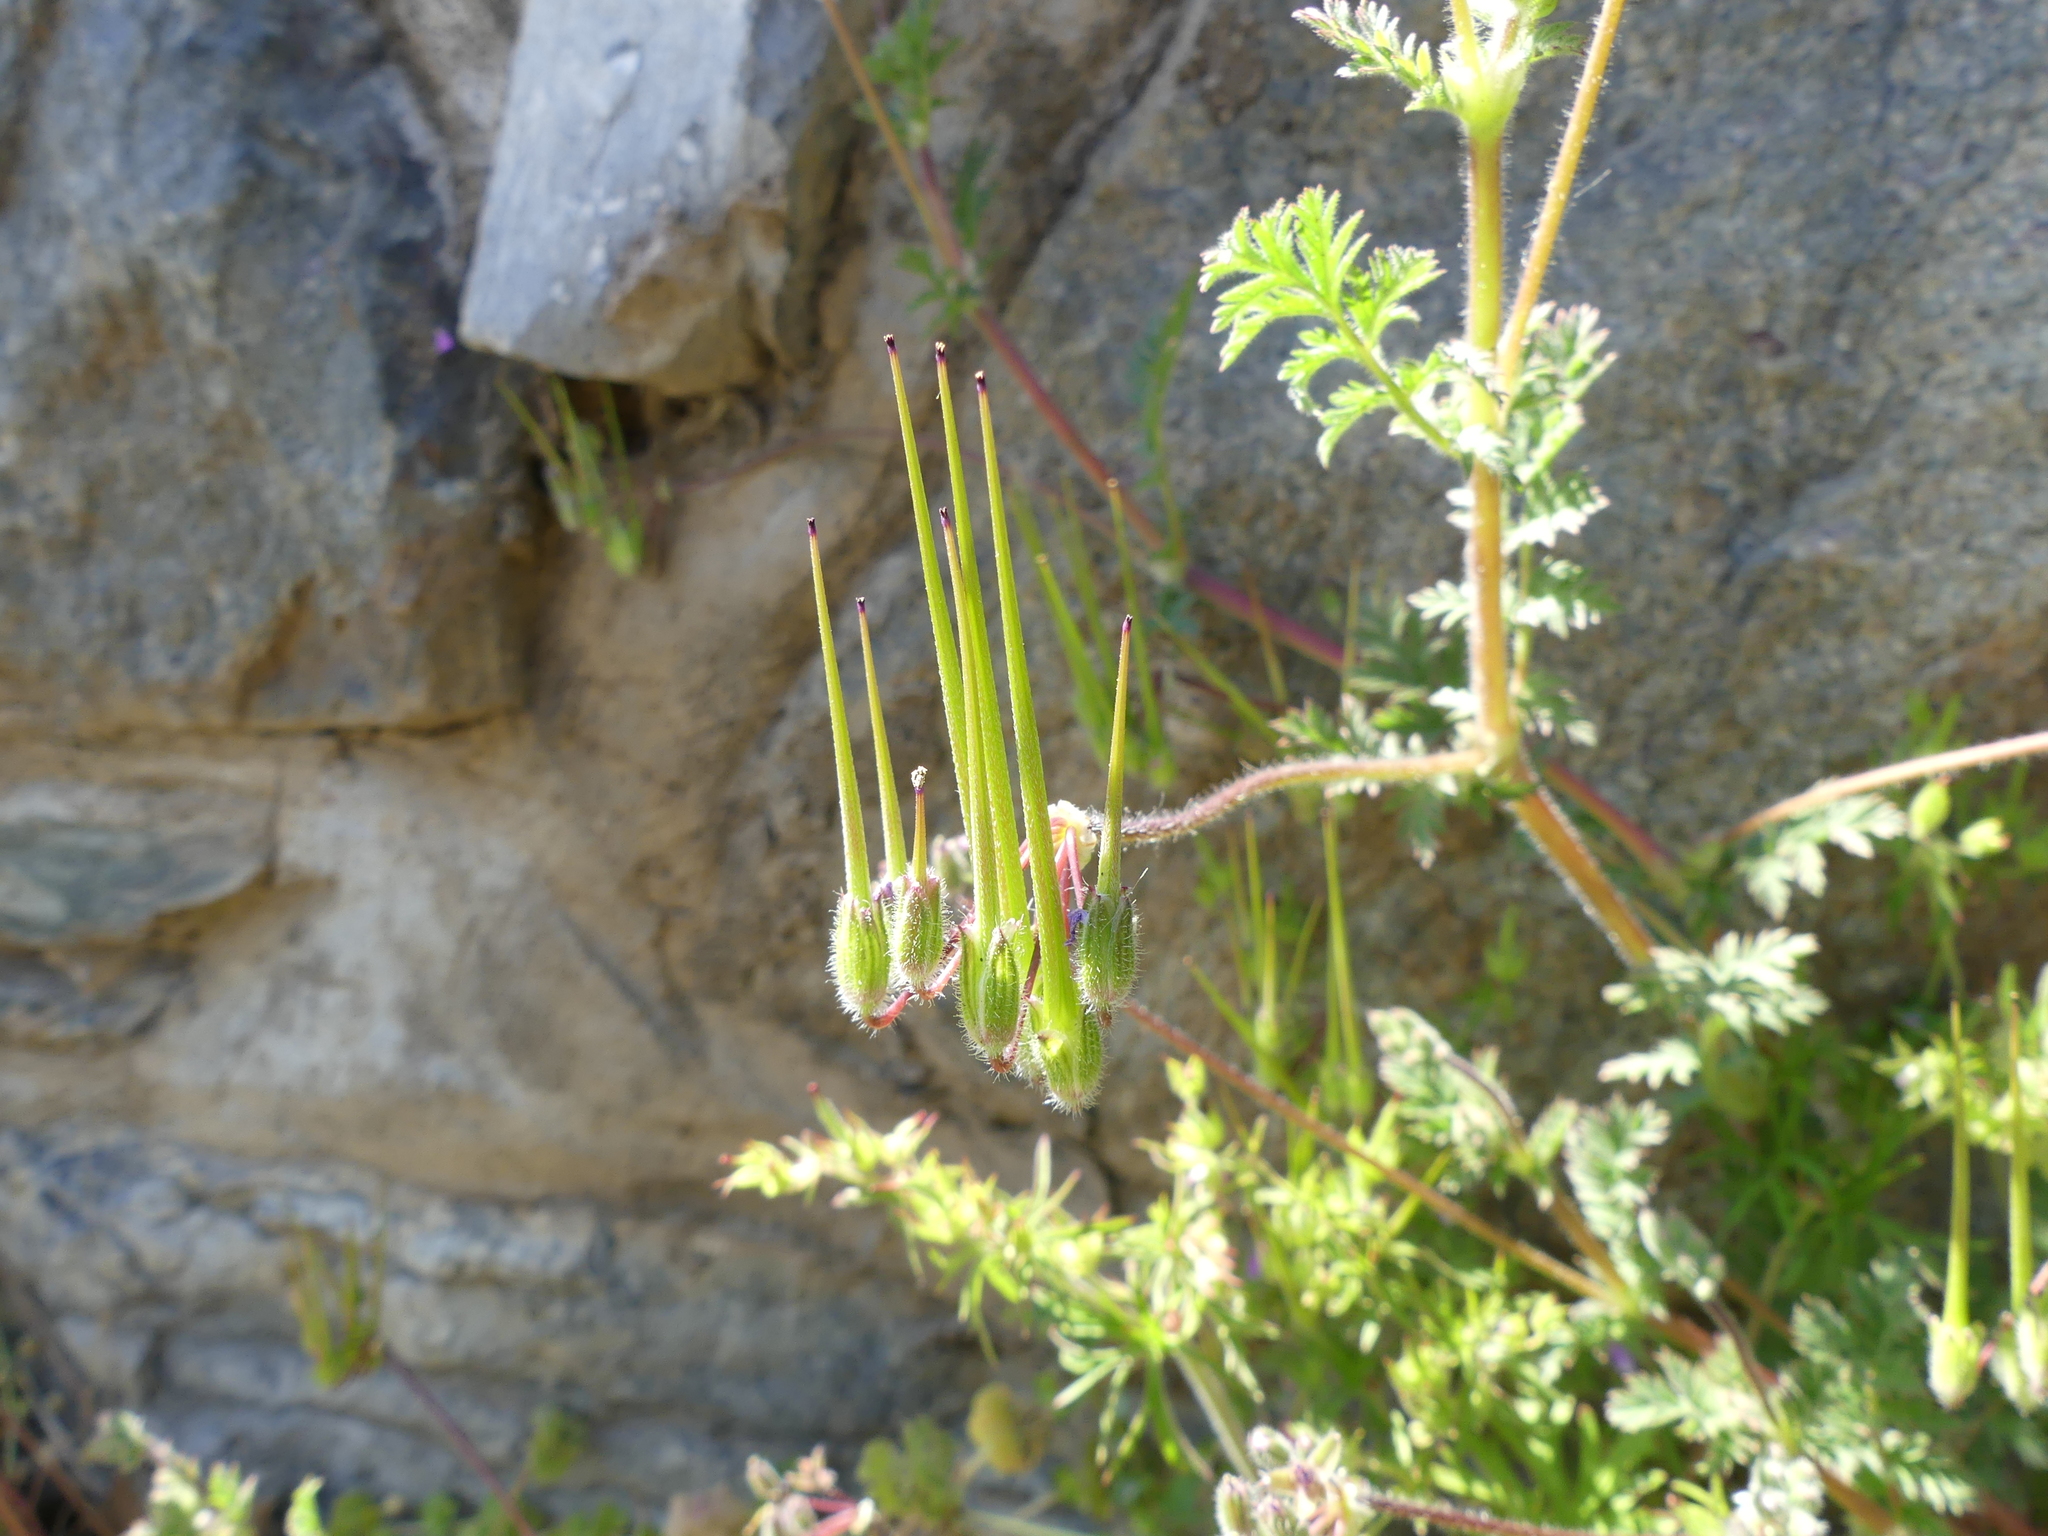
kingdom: Plantae
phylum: Tracheophyta
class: Magnoliopsida
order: Geraniales
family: Geraniaceae
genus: Erodium
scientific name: Erodium cicutarium
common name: Common stork's-bill
